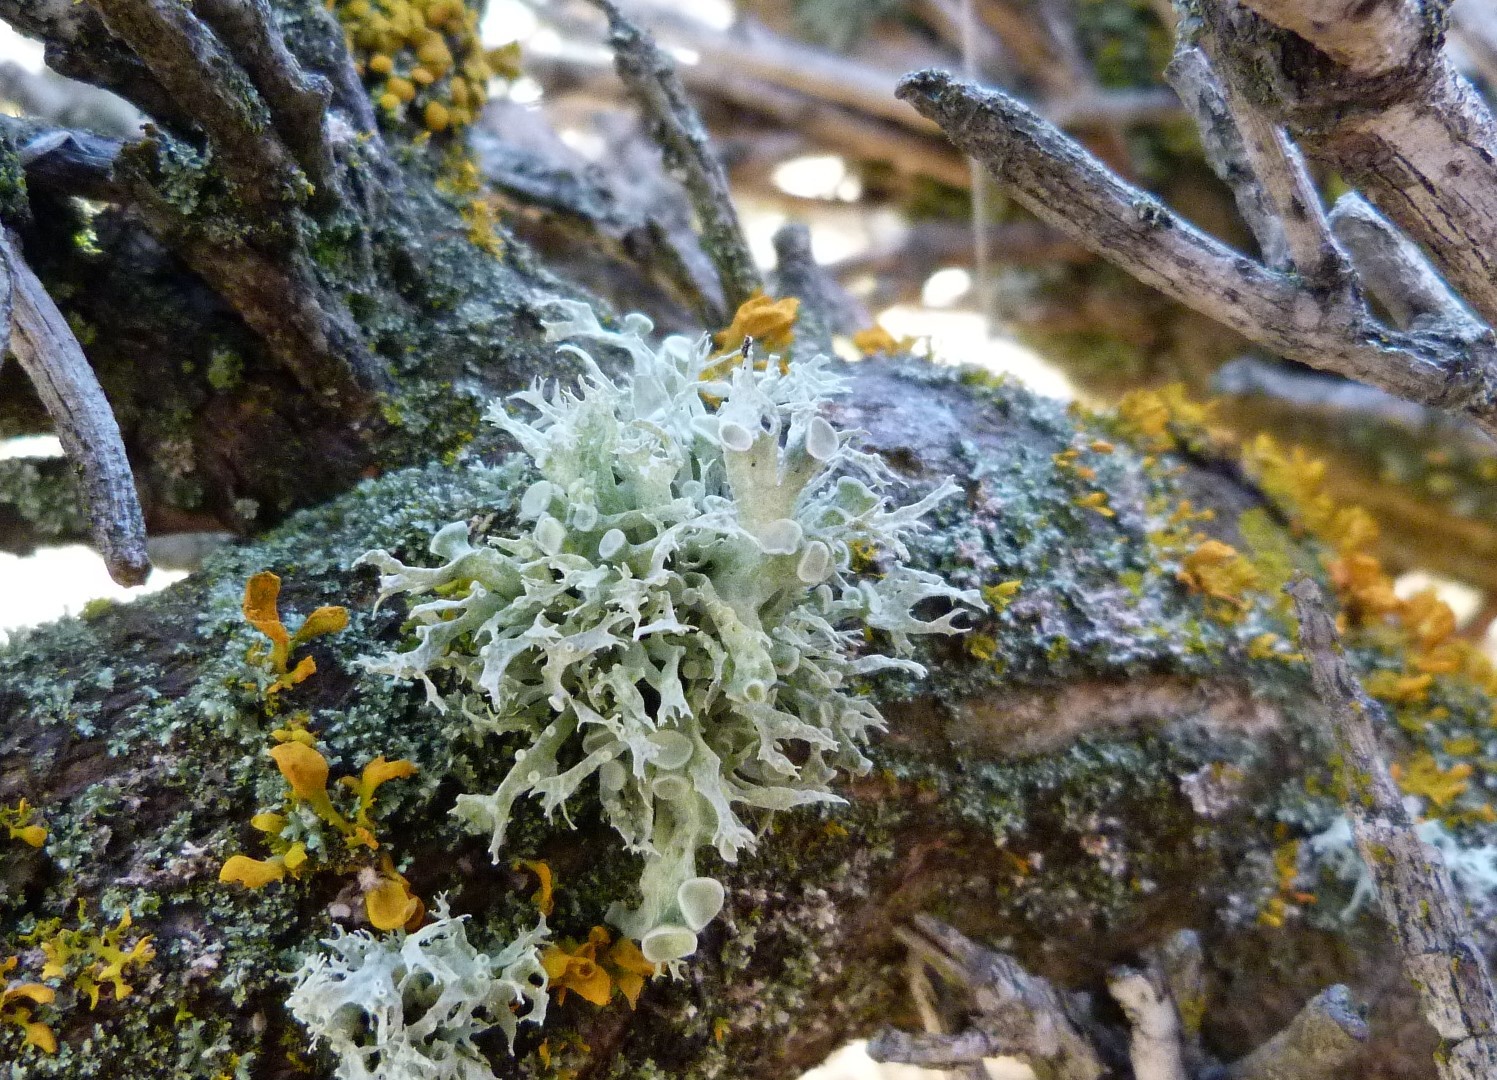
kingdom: Fungi
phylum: Ascomycota
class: Lecanoromycetes
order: Lecanorales
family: Ramalinaceae
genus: Ramalina
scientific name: Ramalina inflata
